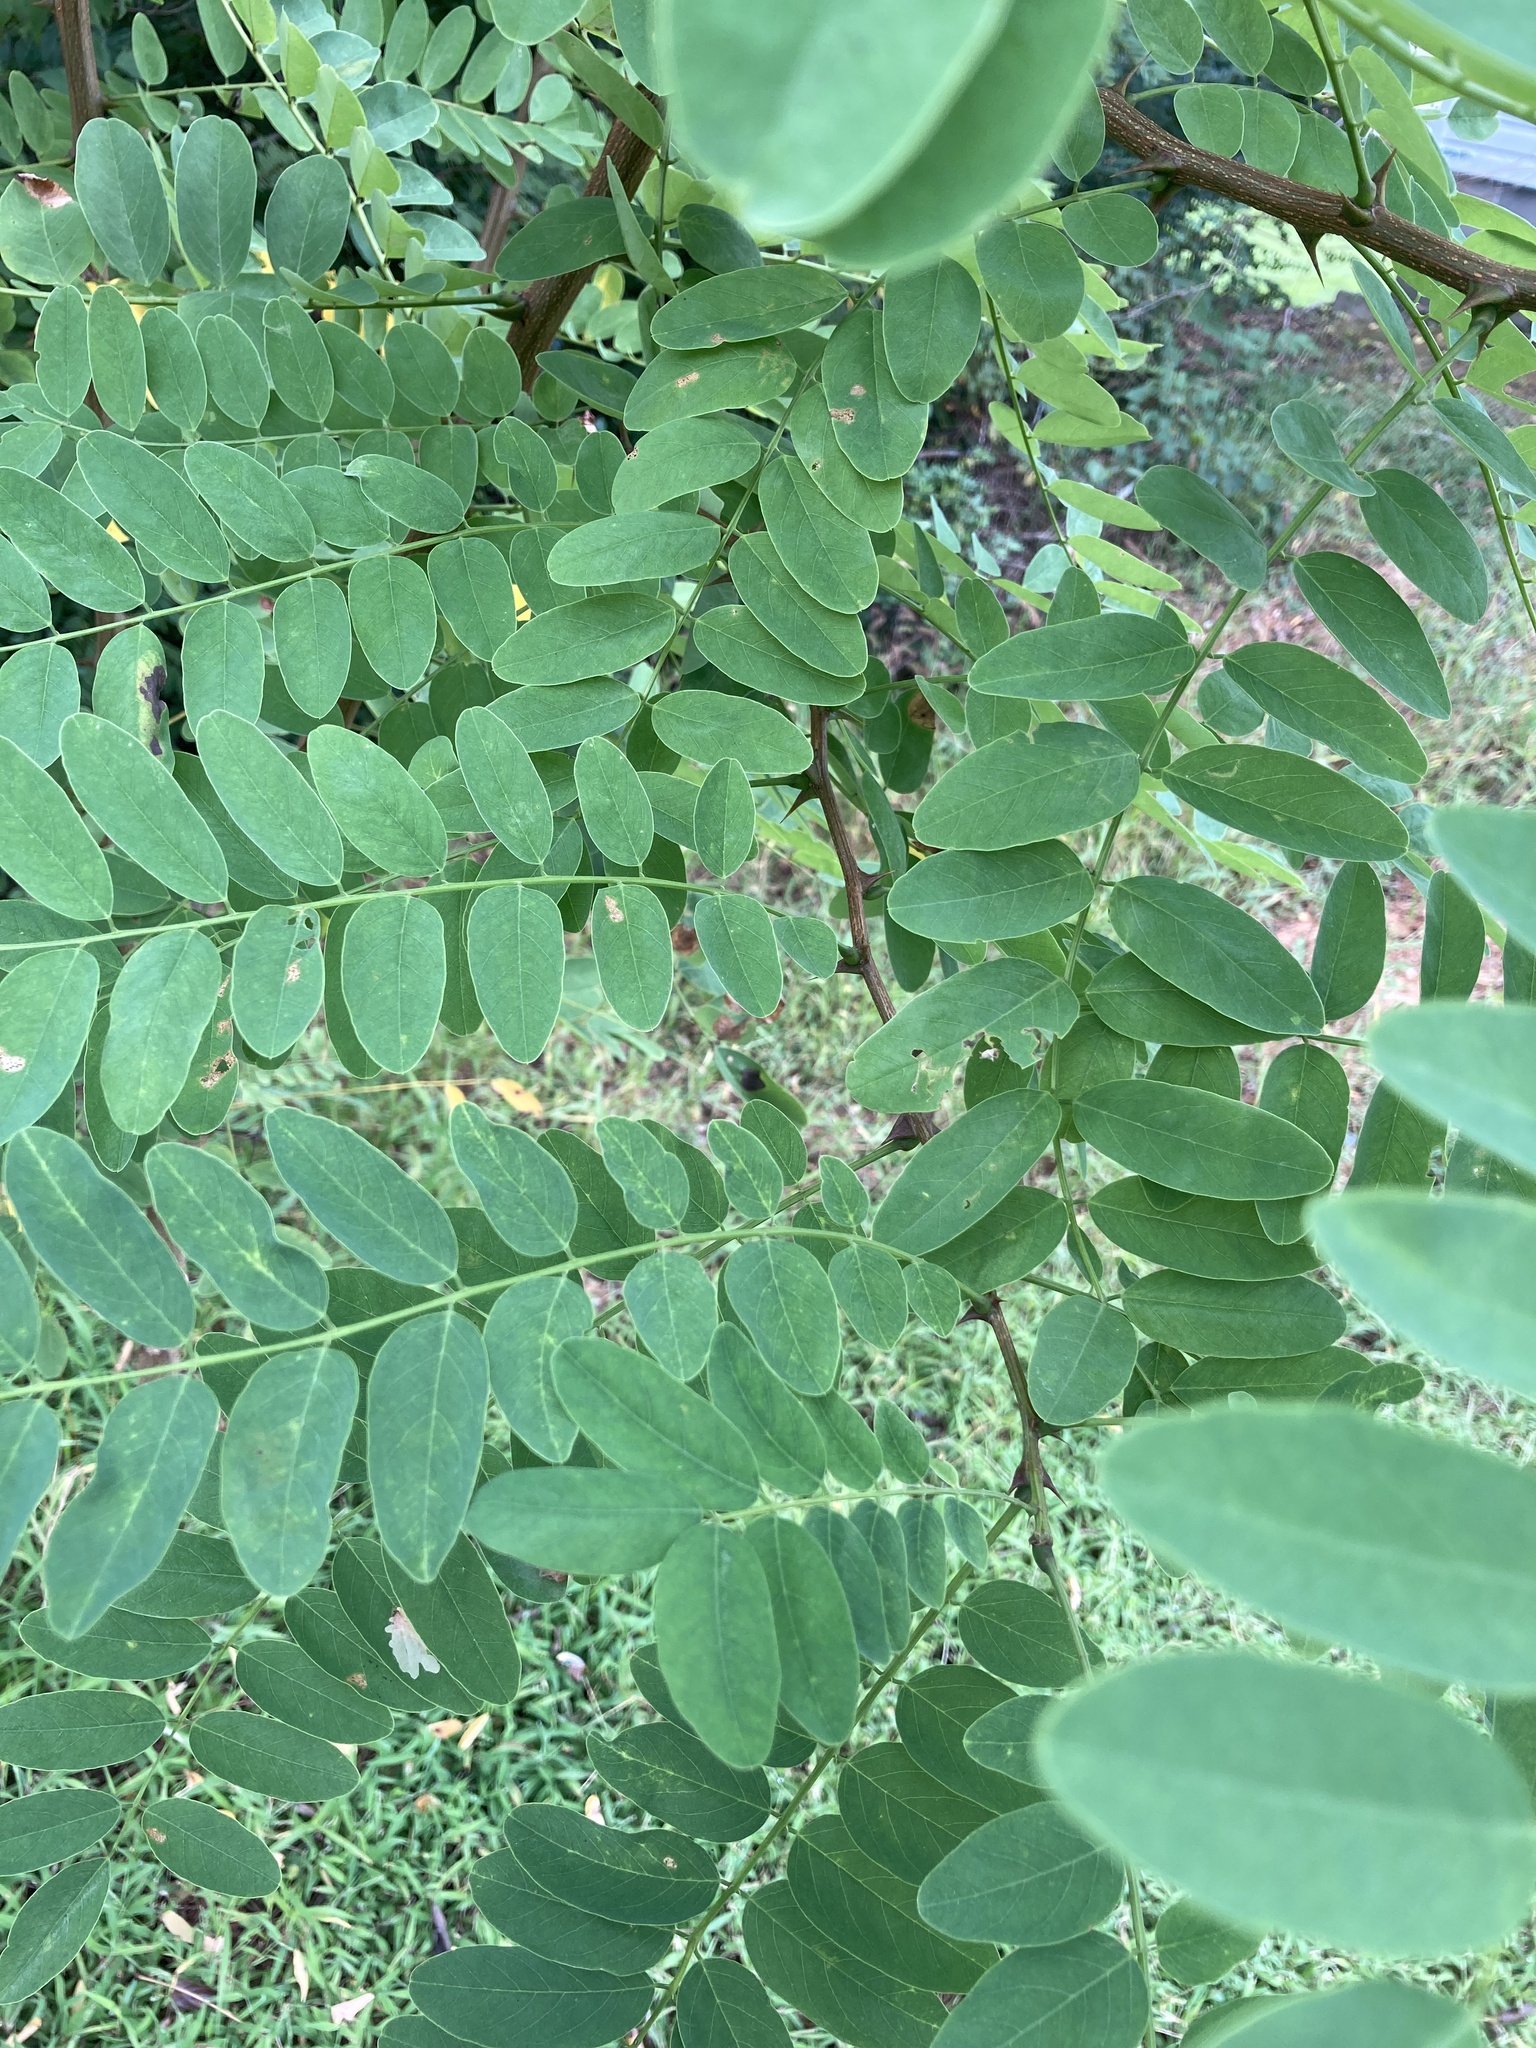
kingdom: Plantae
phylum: Tracheophyta
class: Magnoliopsida
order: Fabales
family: Fabaceae
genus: Robinia
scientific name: Robinia pseudoacacia
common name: Black locust
